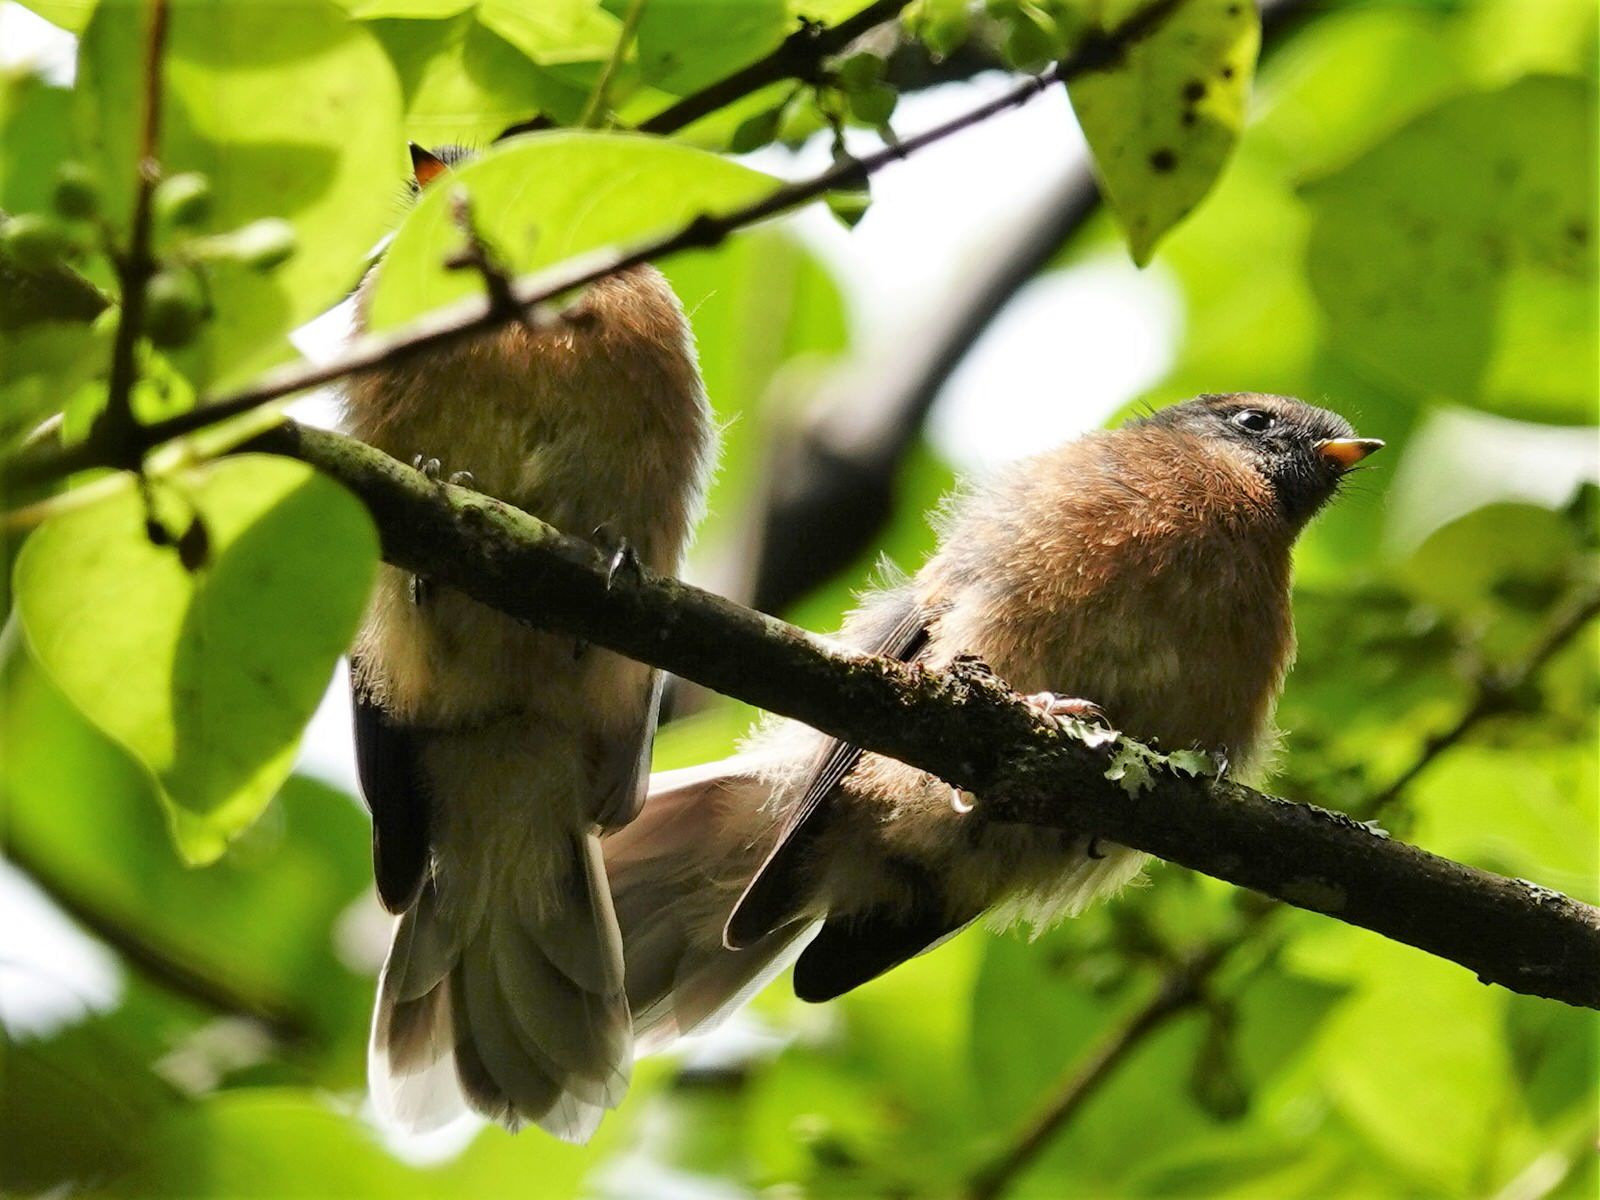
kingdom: Animalia
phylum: Chordata
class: Aves
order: Passeriformes
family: Rhipiduridae
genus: Rhipidura
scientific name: Rhipidura fuliginosa
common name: New zealand fantail
